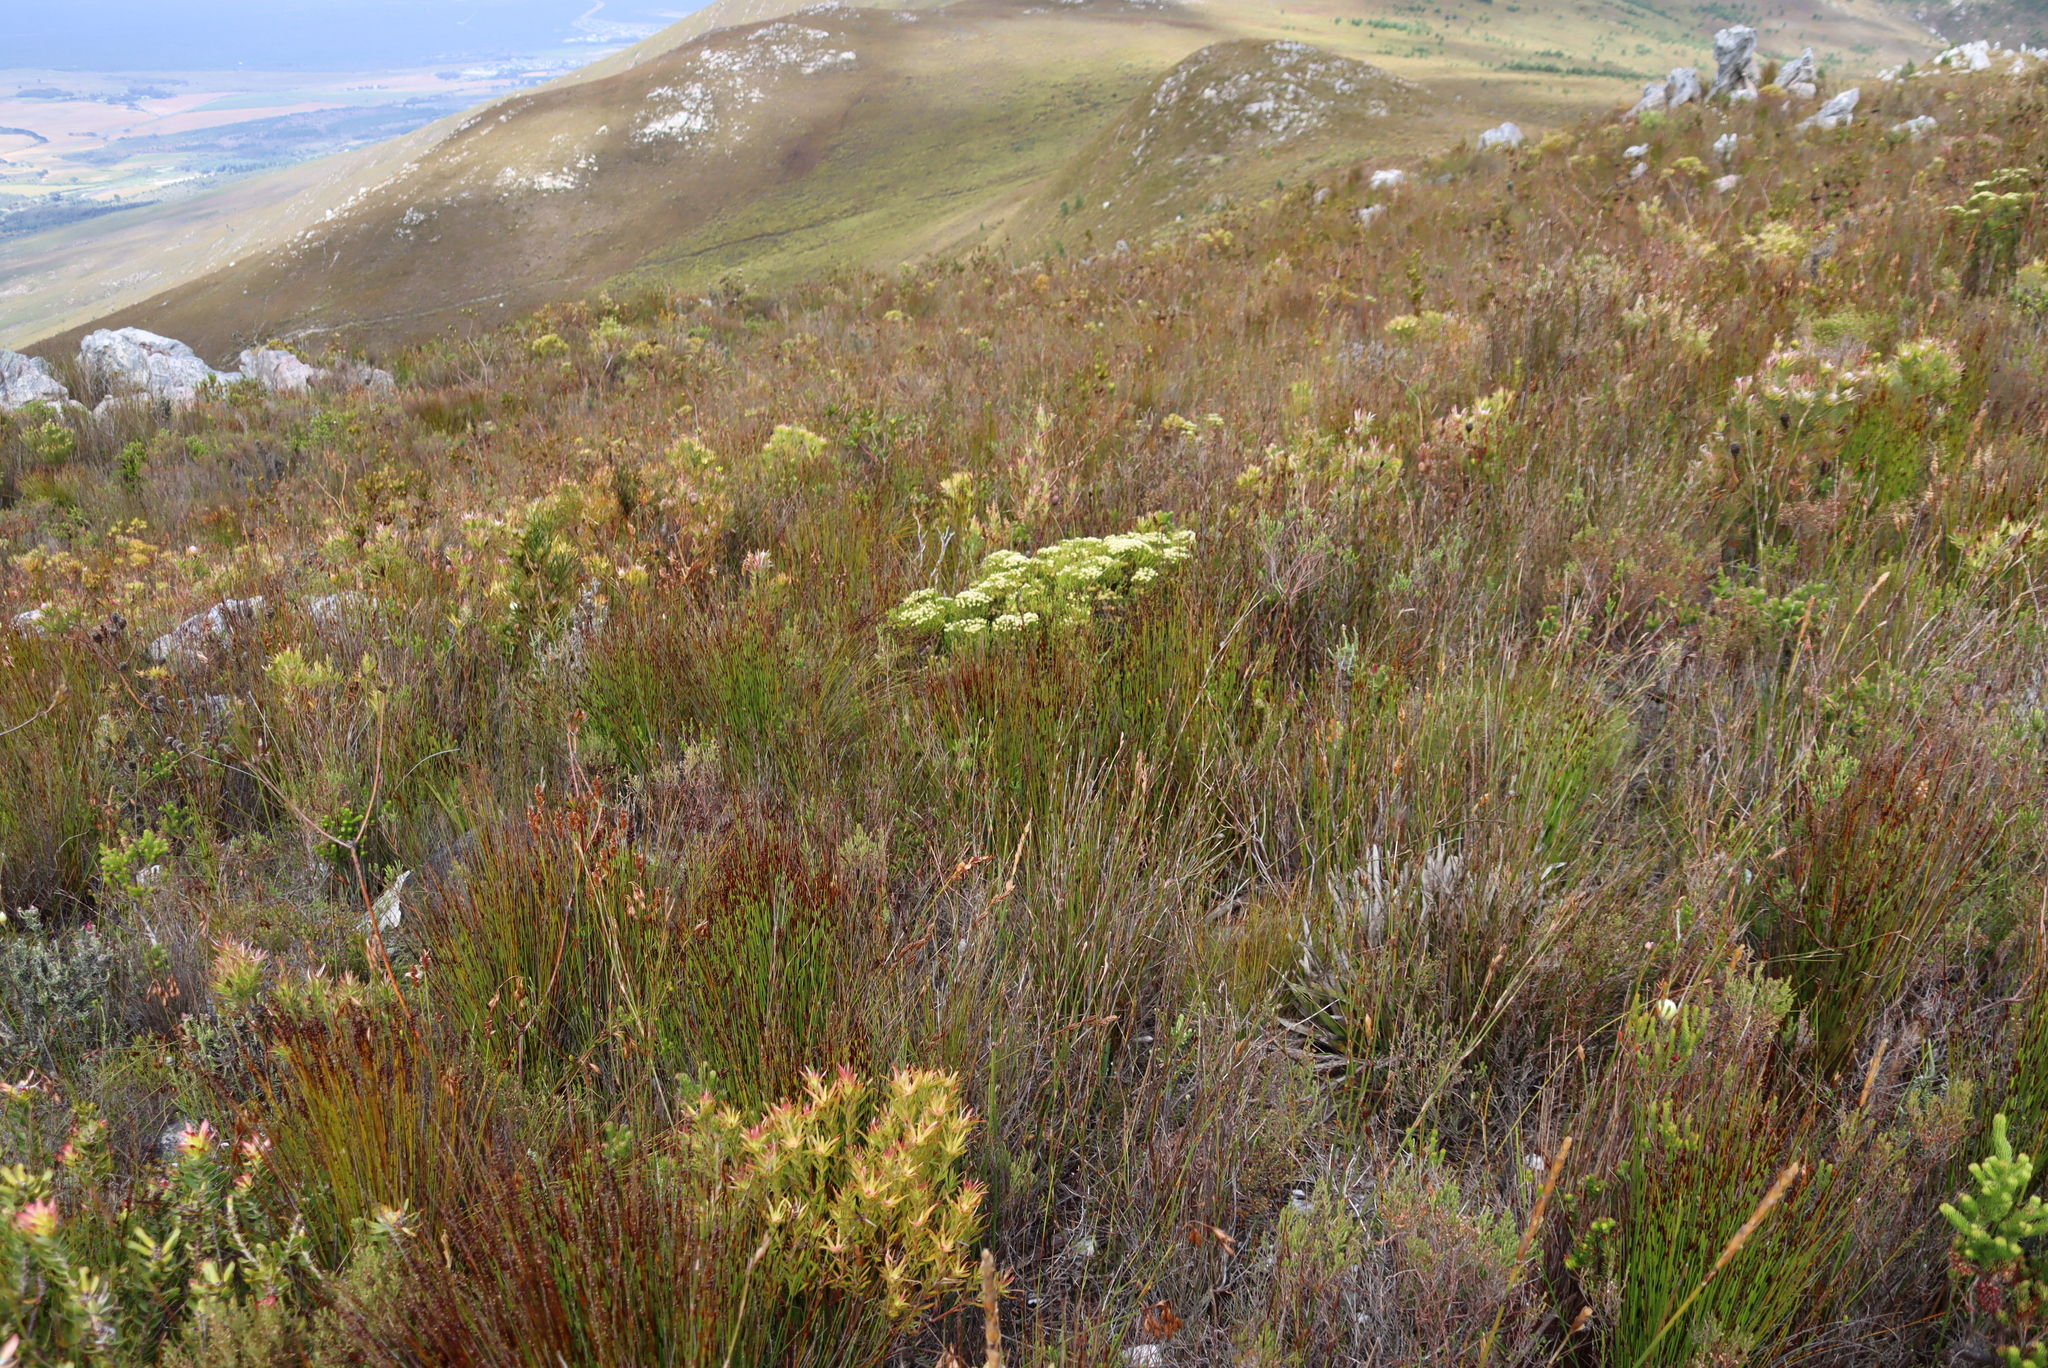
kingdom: Plantae
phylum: Tracheophyta
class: Magnoliopsida
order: Bruniales
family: Bruniaceae
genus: Brunia
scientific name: Brunia paleacea
